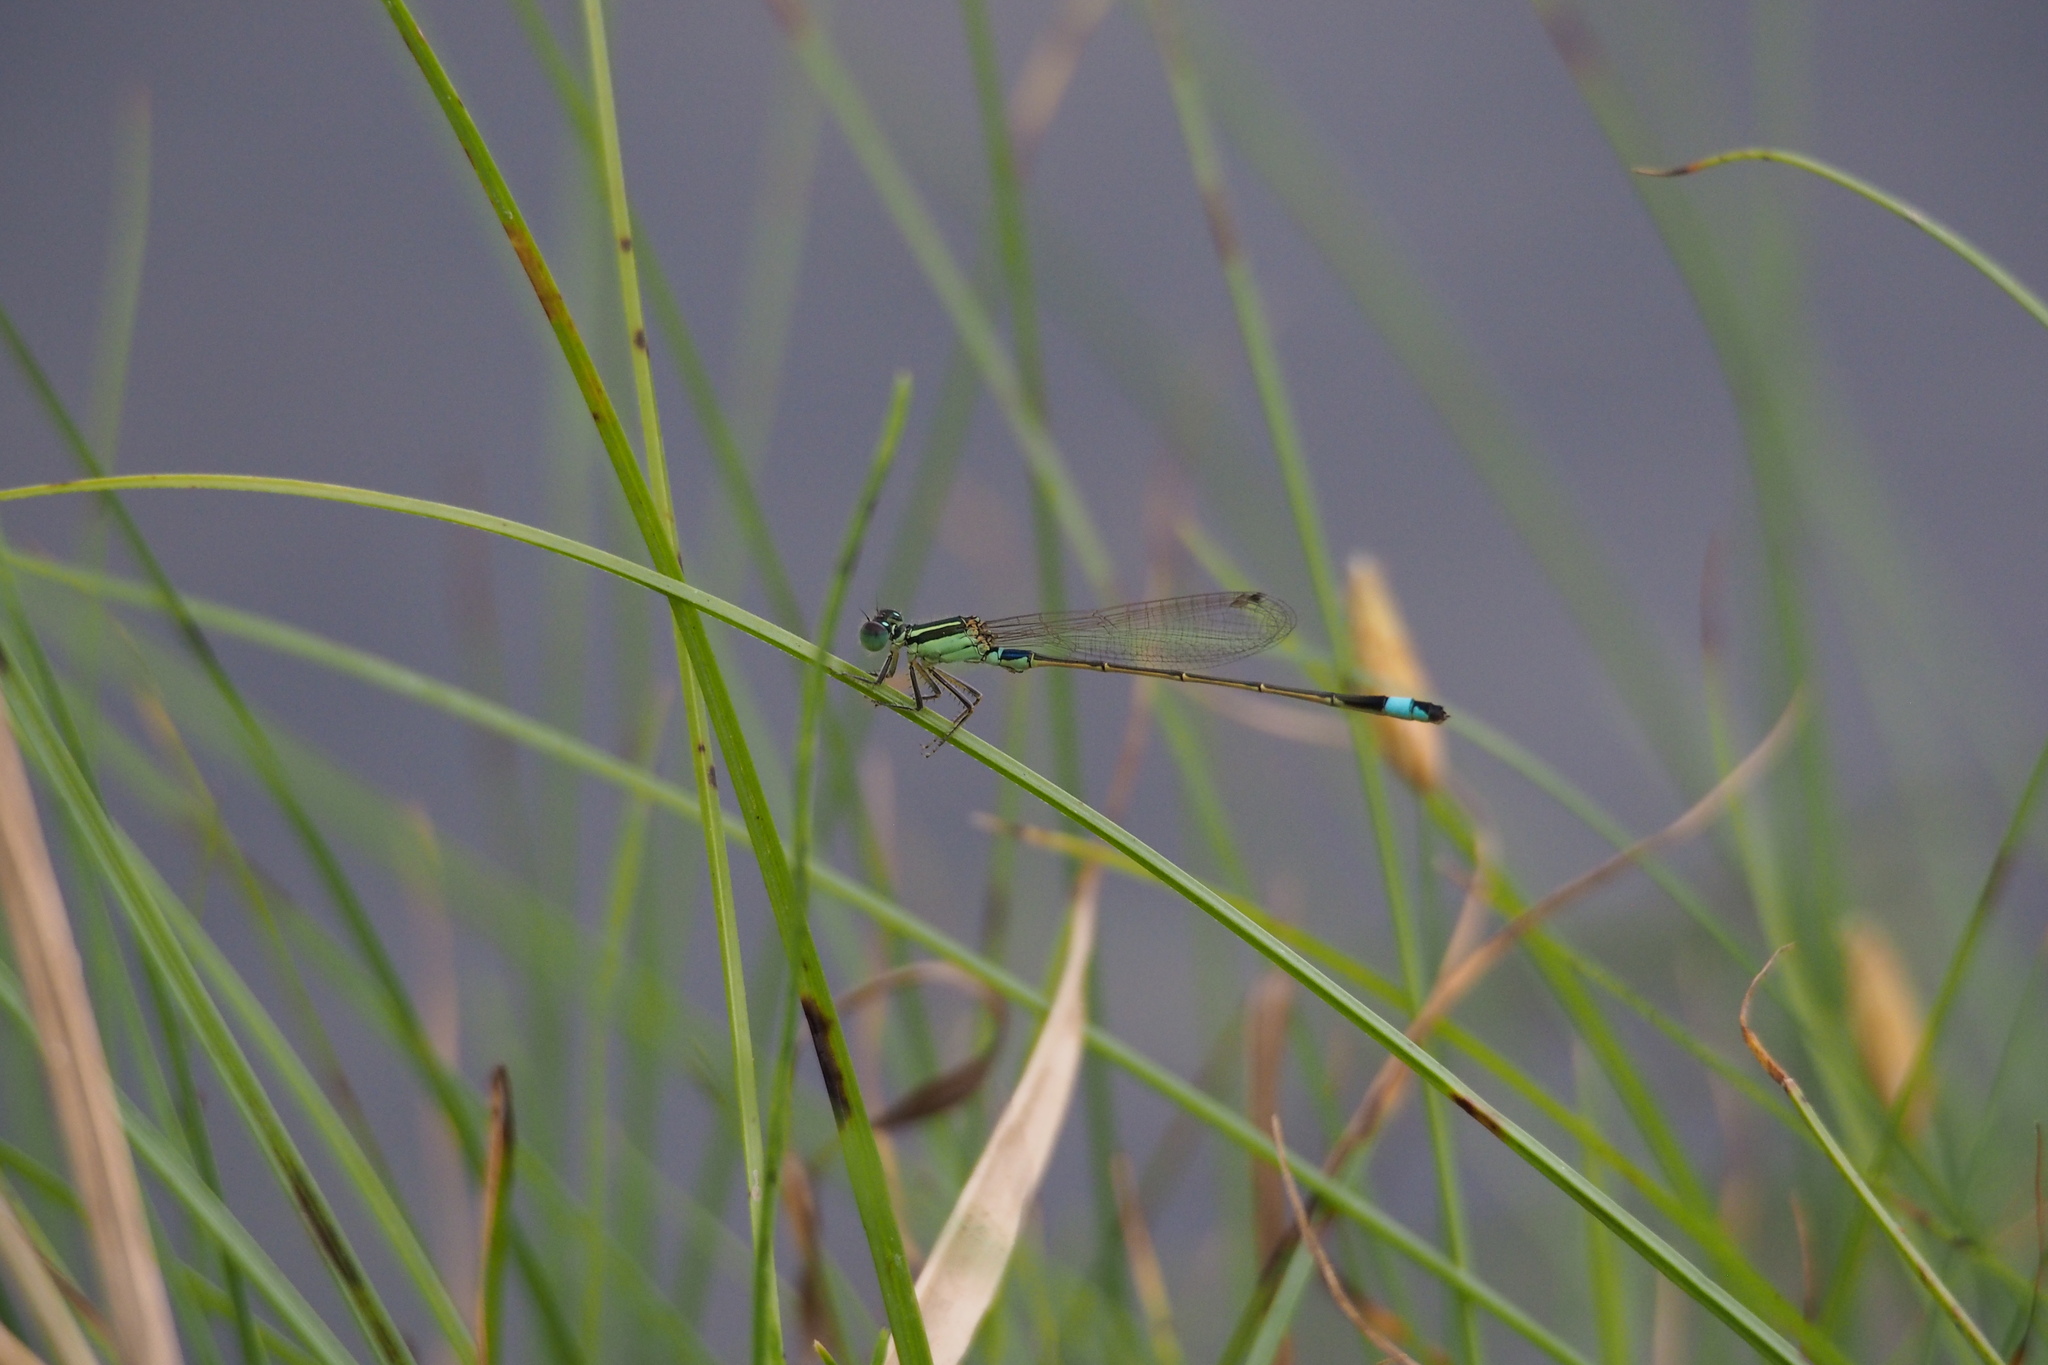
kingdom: Animalia
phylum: Arthropoda
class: Insecta
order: Odonata
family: Coenagrionidae
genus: Ischnura
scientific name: Ischnura senegalensis
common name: Tropical bluetail
